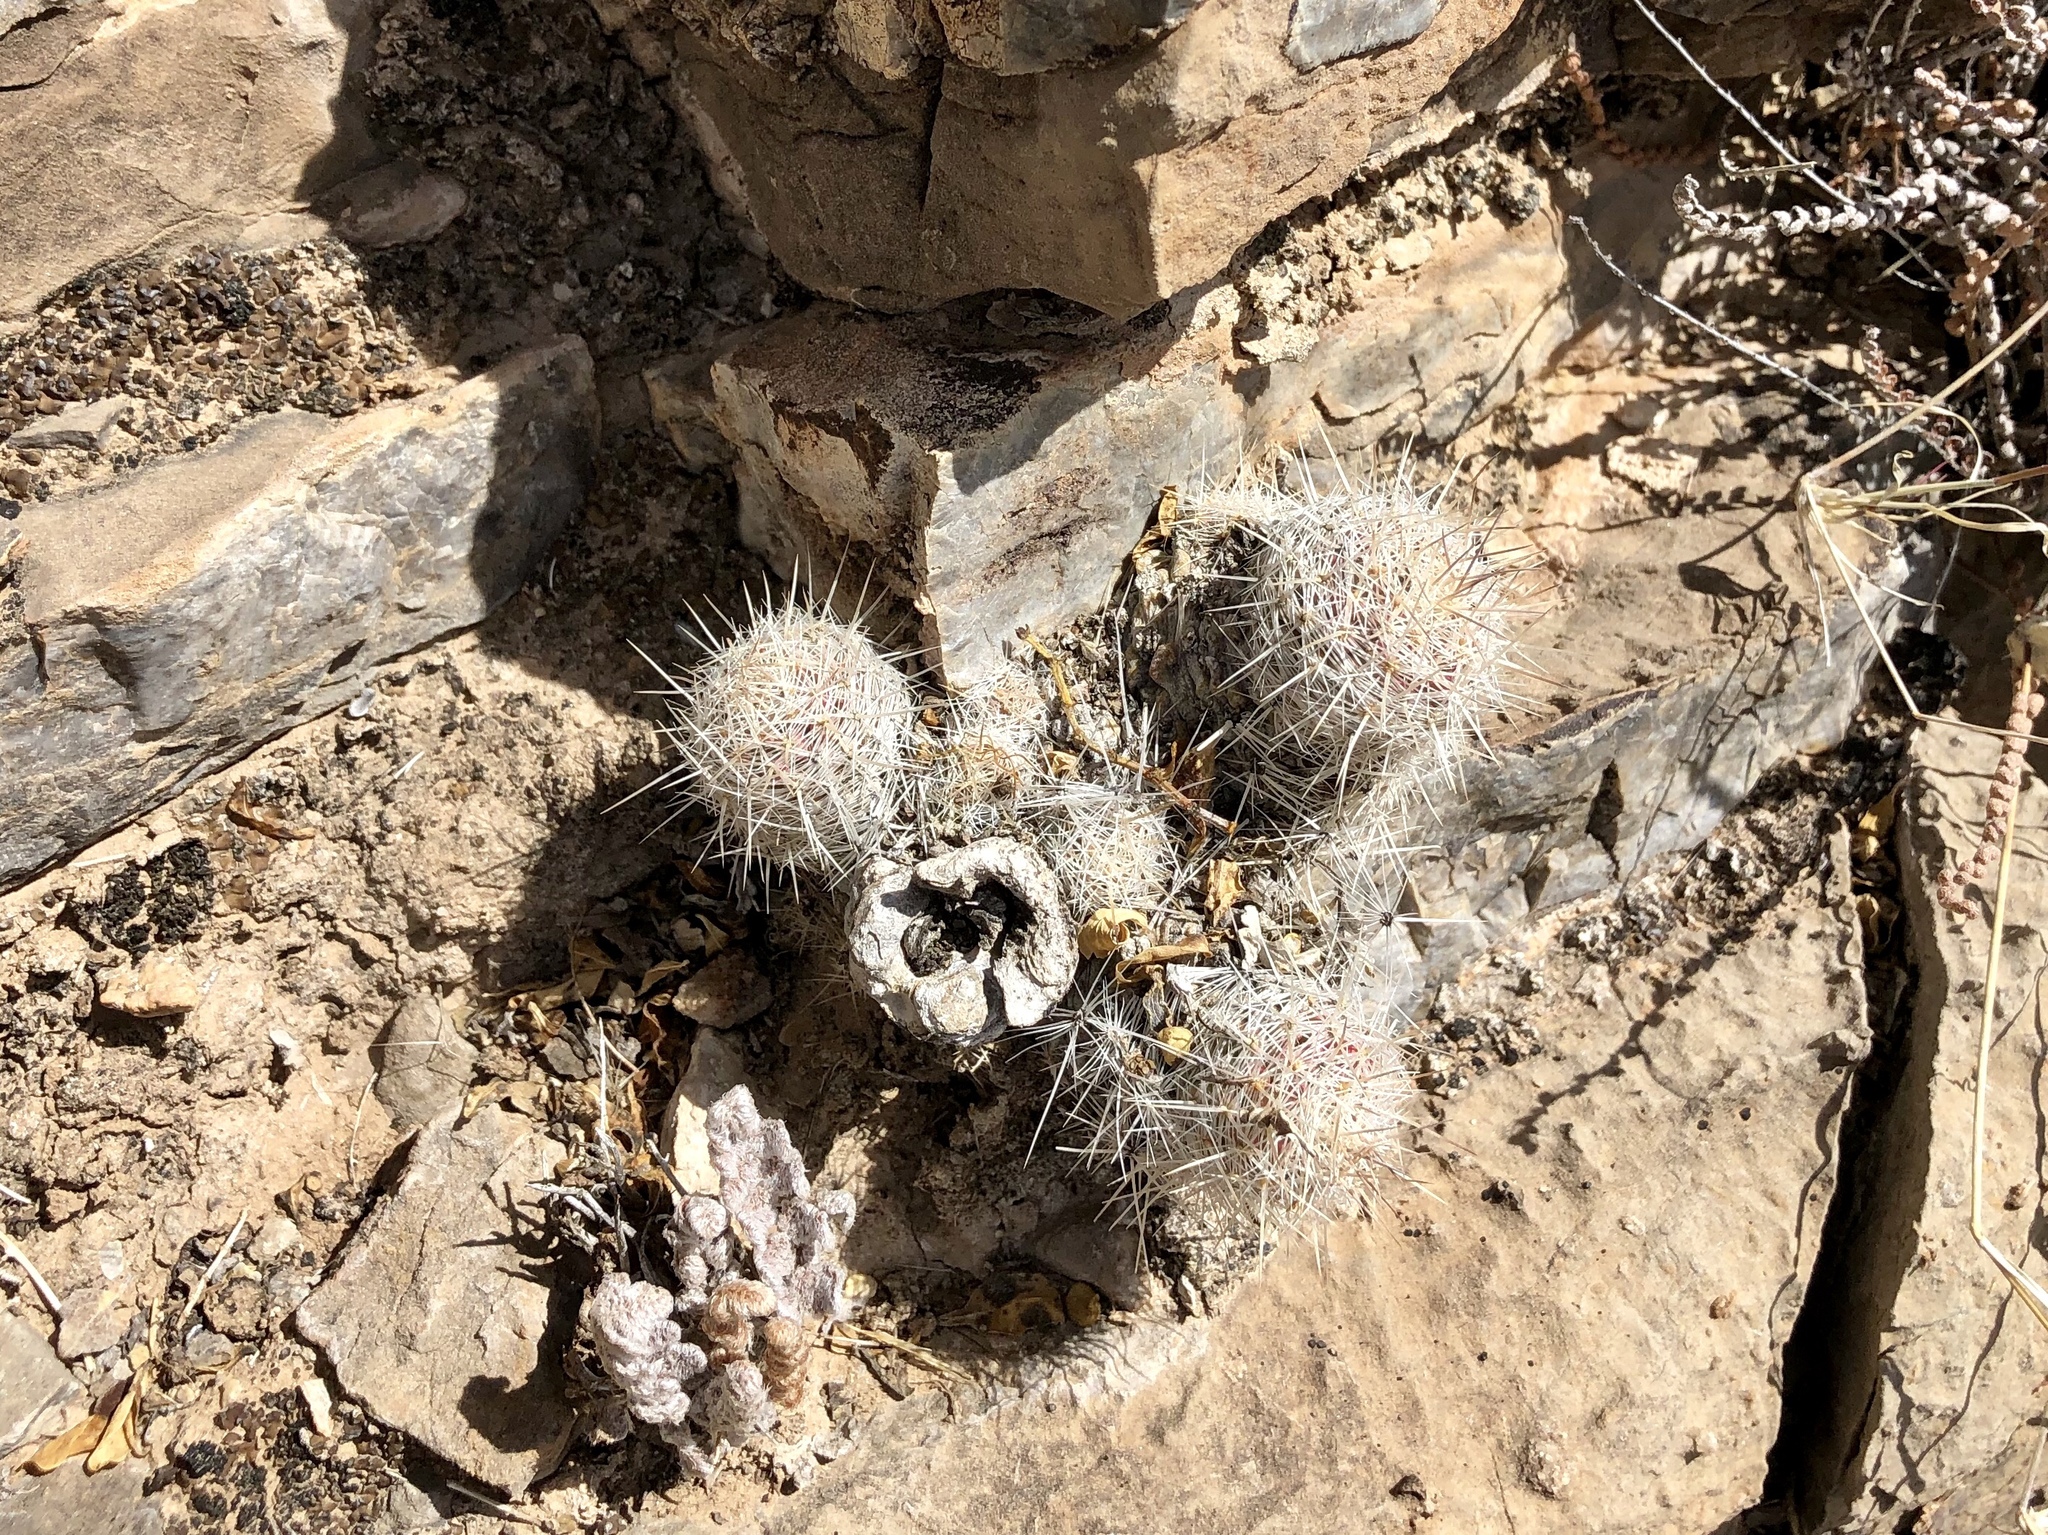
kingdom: Plantae
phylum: Tracheophyta
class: Magnoliopsida
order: Caryophyllales
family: Cactaceae
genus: Pelecyphora
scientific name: Pelecyphora tuberculosa
